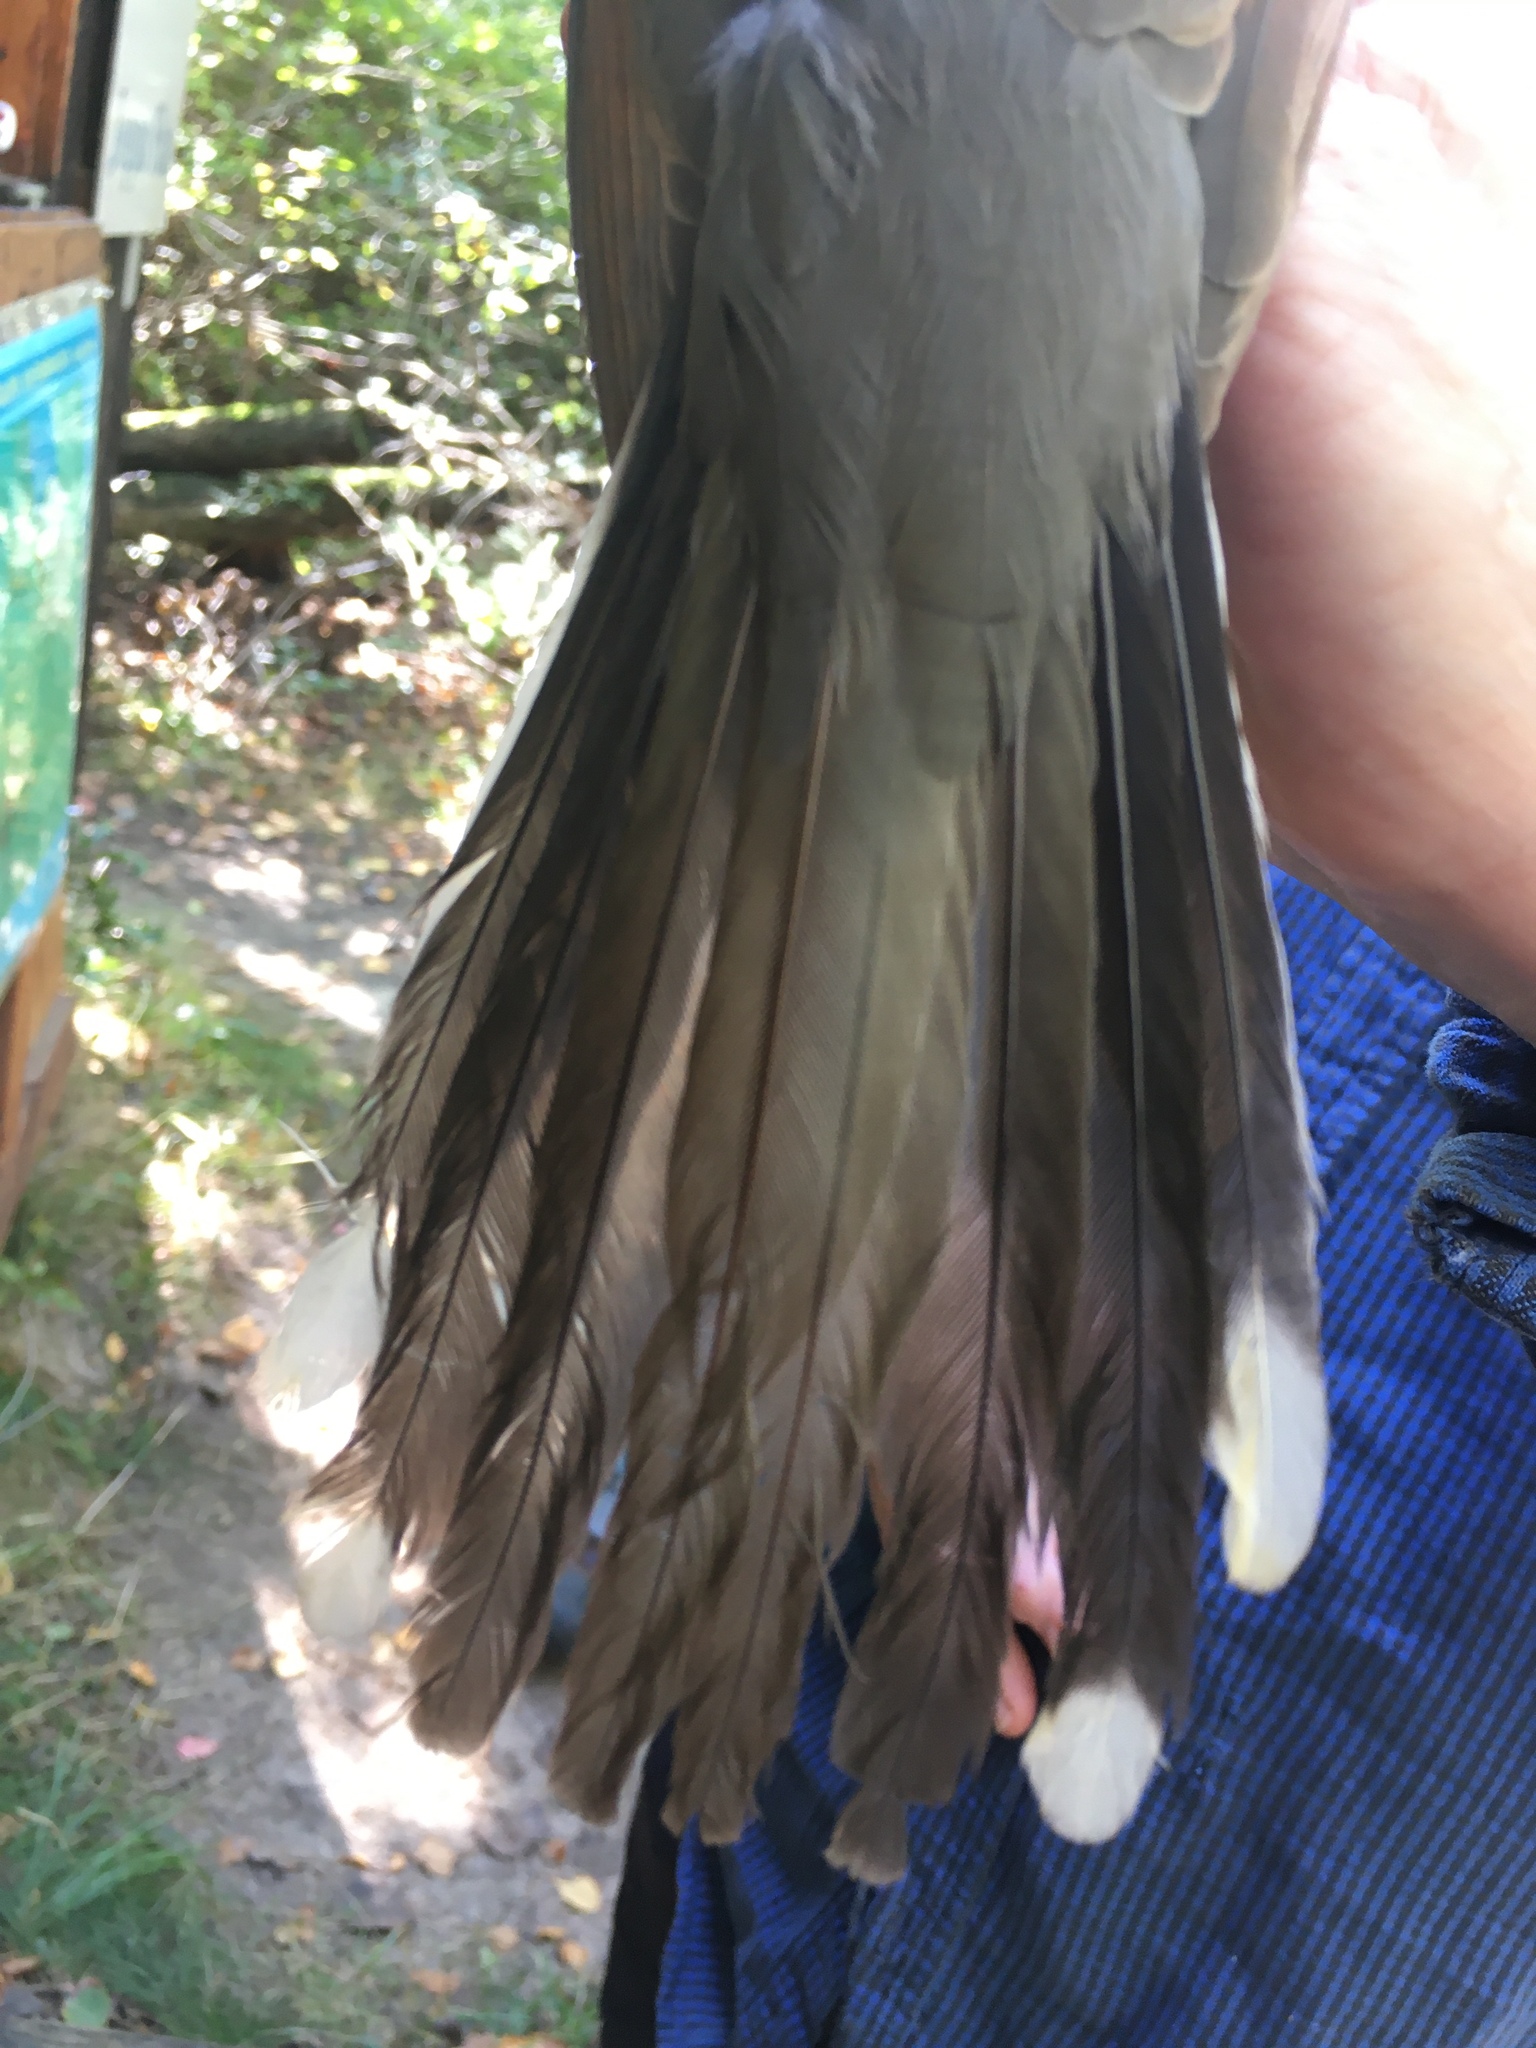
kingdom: Animalia
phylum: Chordata
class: Aves
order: Cuculiformes
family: Cuculidae
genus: Coccyzus
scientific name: Coccyzus americanus
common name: Yellow-billed cuckoo
